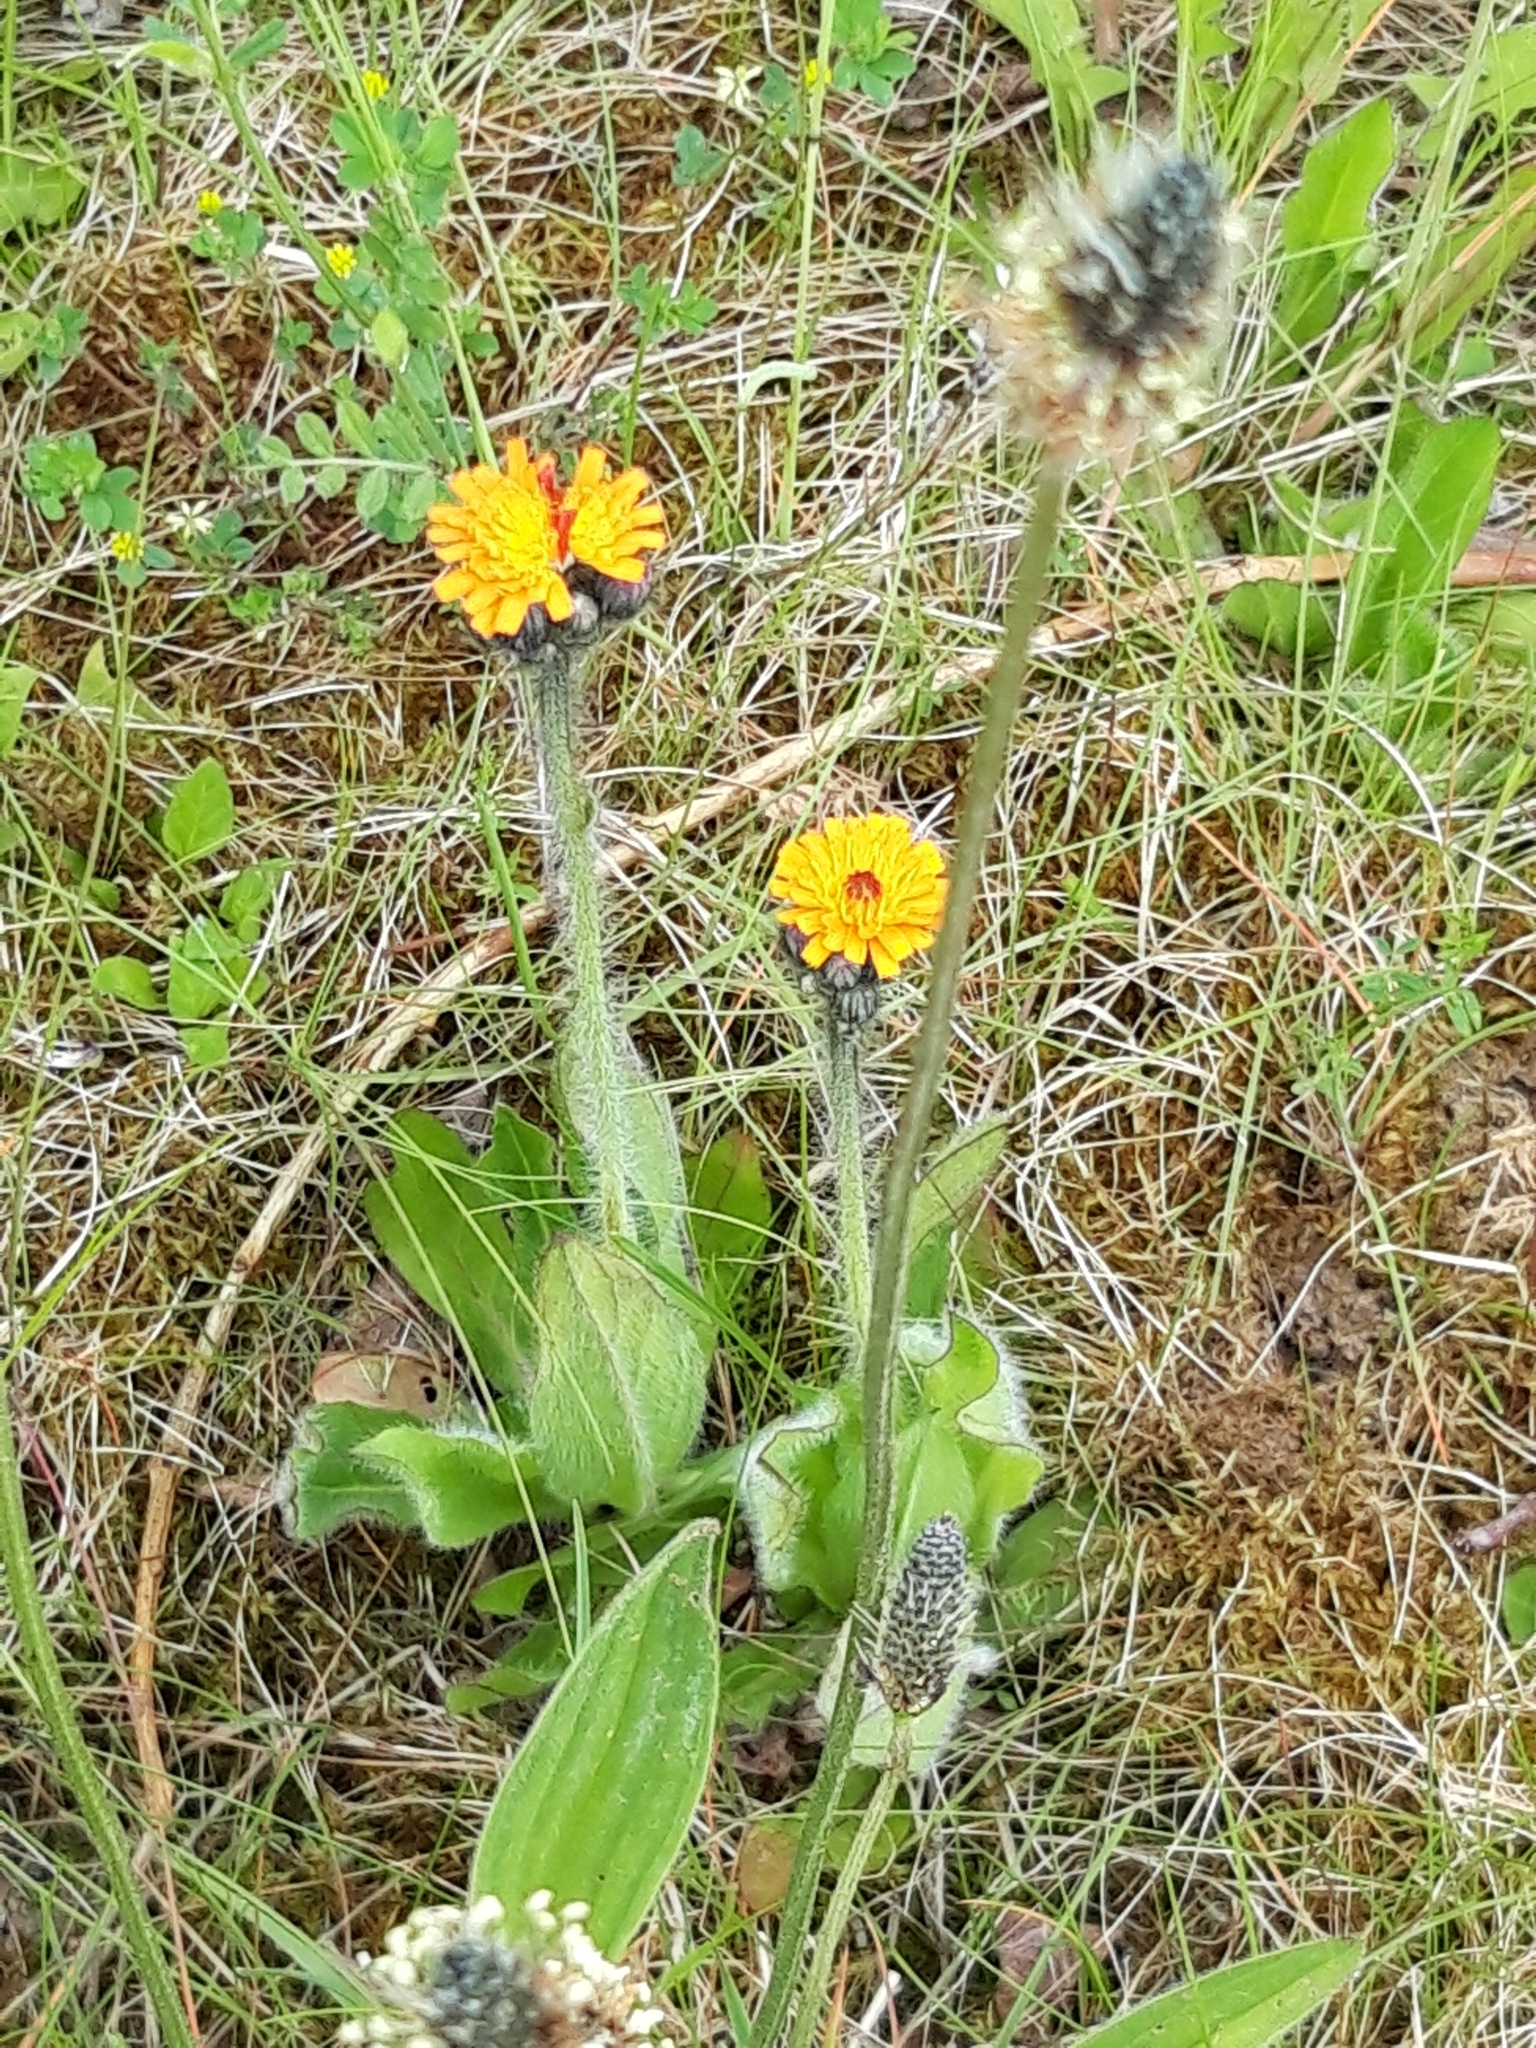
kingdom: Plantae
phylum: Tracheophyta
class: Magnoliopsida
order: Asterales
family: Asteraceae
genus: Pilosella
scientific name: Pilosella aurantiaca
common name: Fox-and-cubs
